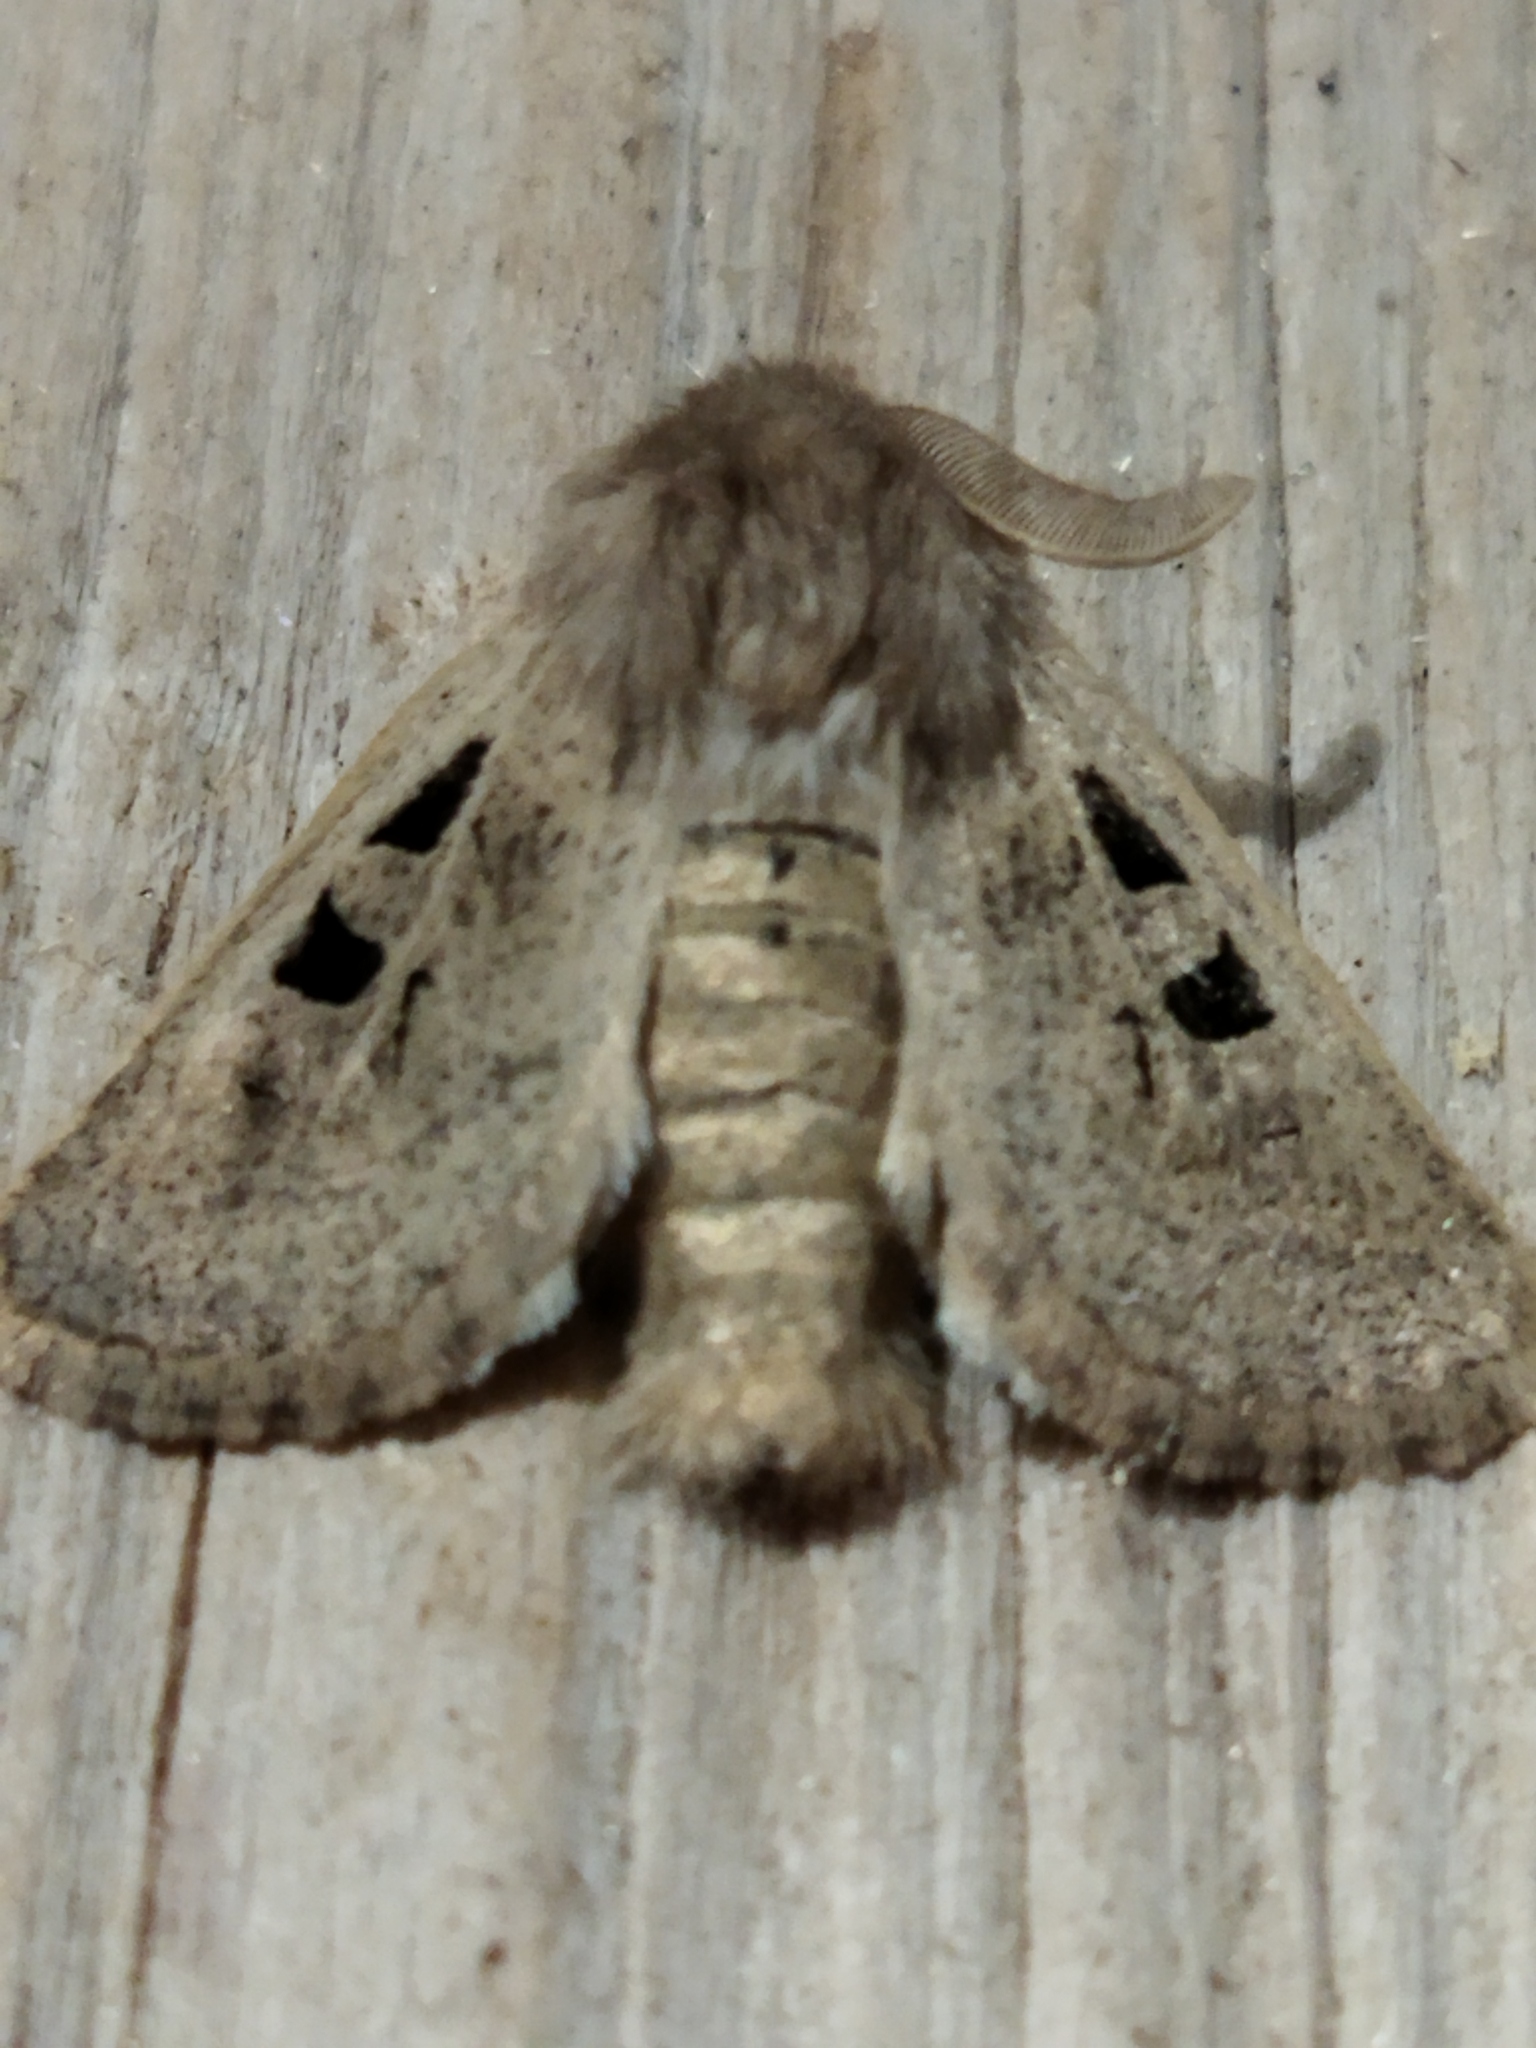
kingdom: Animalia
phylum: Arthropoda
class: Insecta
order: Lepidoptera
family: Noctuidae
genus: Episema
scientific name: Episema glaucina
